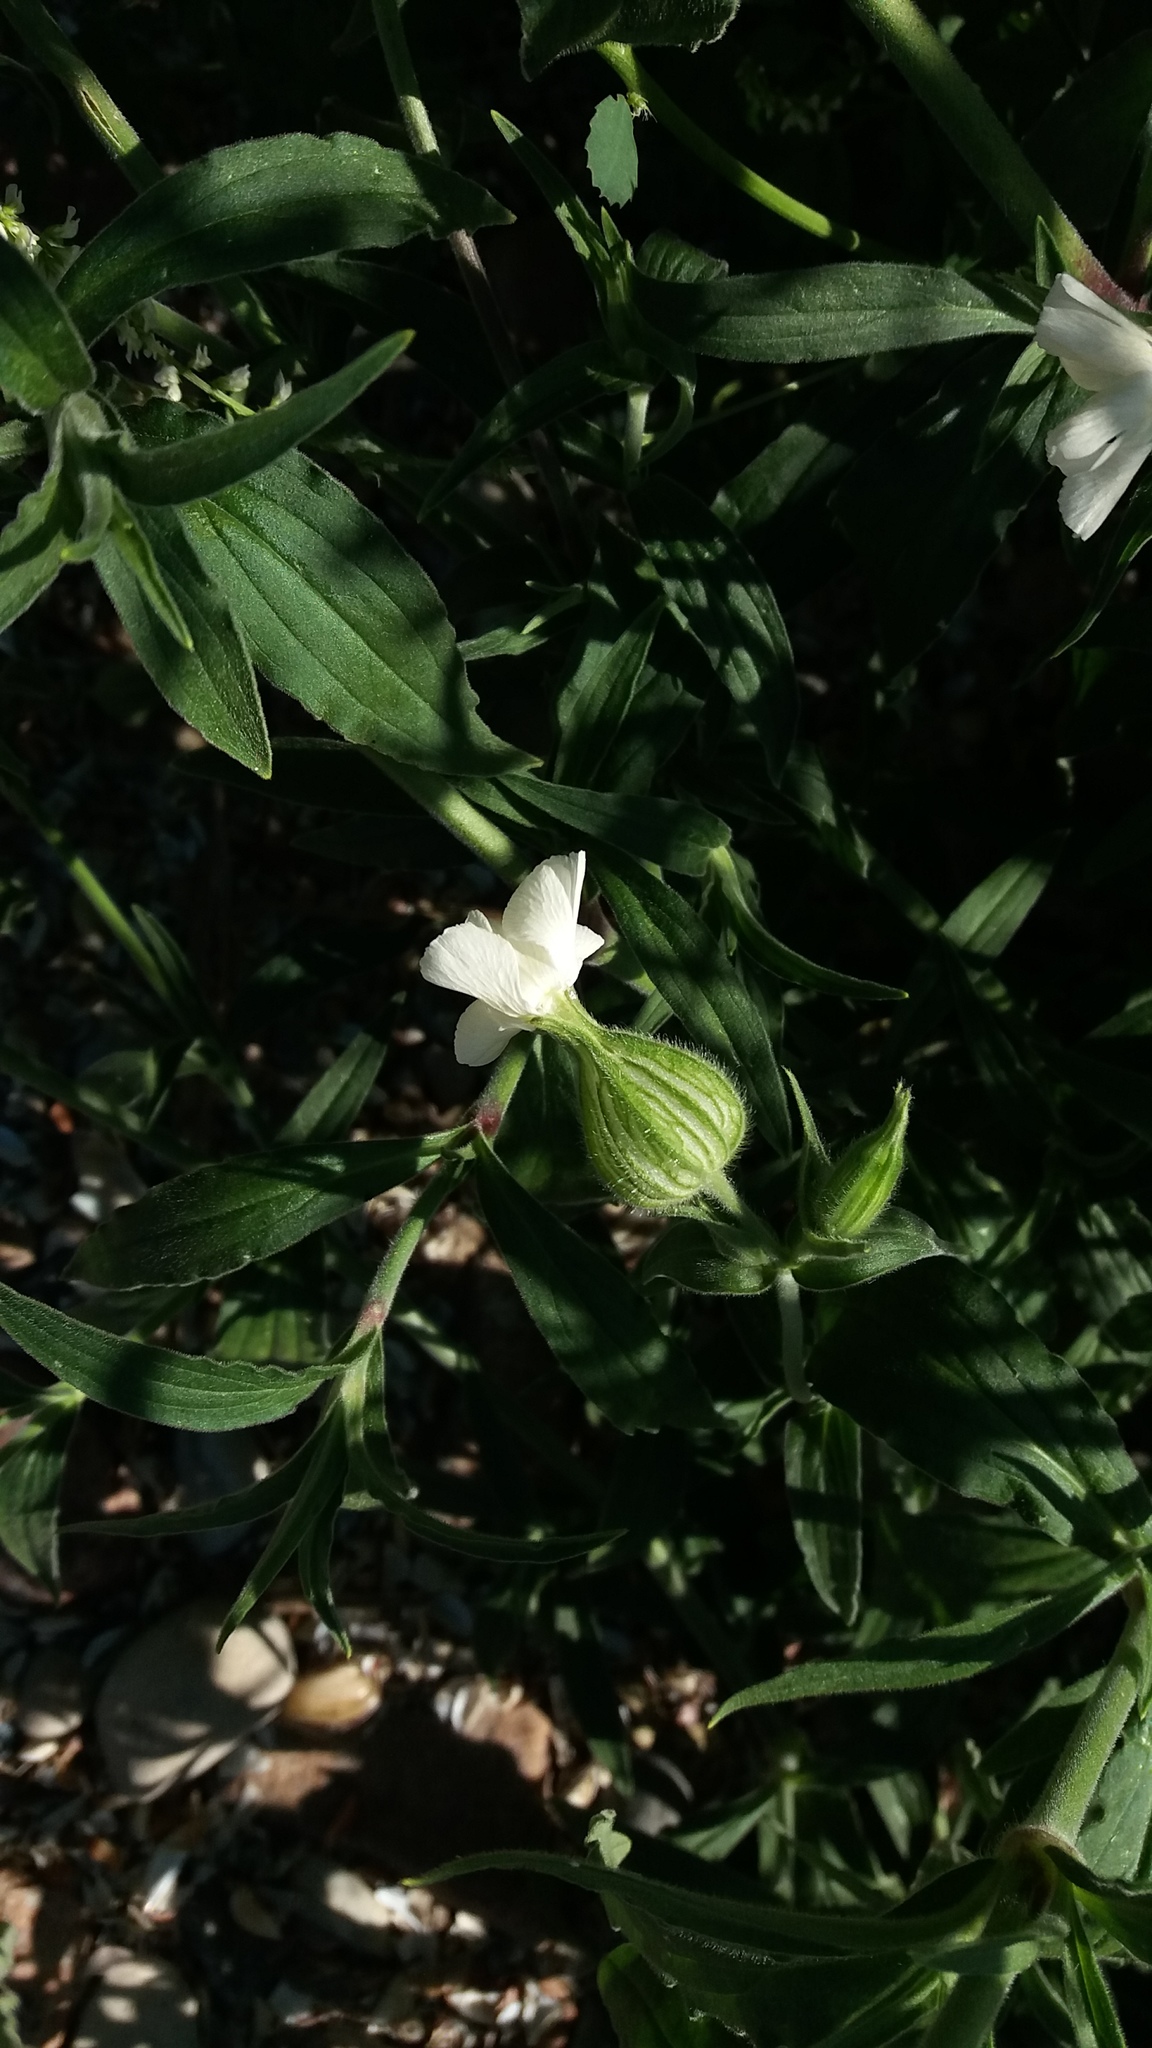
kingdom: Plantae
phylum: Tracheophyta
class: Magnoliopsida
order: Caryophyllales
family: Caryophyllaceae
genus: Silene
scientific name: Silene latifolia
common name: White campion
